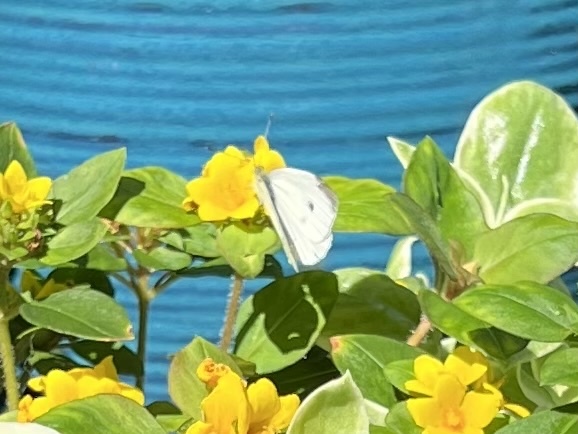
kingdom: Animalia
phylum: Arthropoda
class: Insecta
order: Lepidoptera
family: Pieridae
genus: Pieris
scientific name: Pieris rapae
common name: Small white
